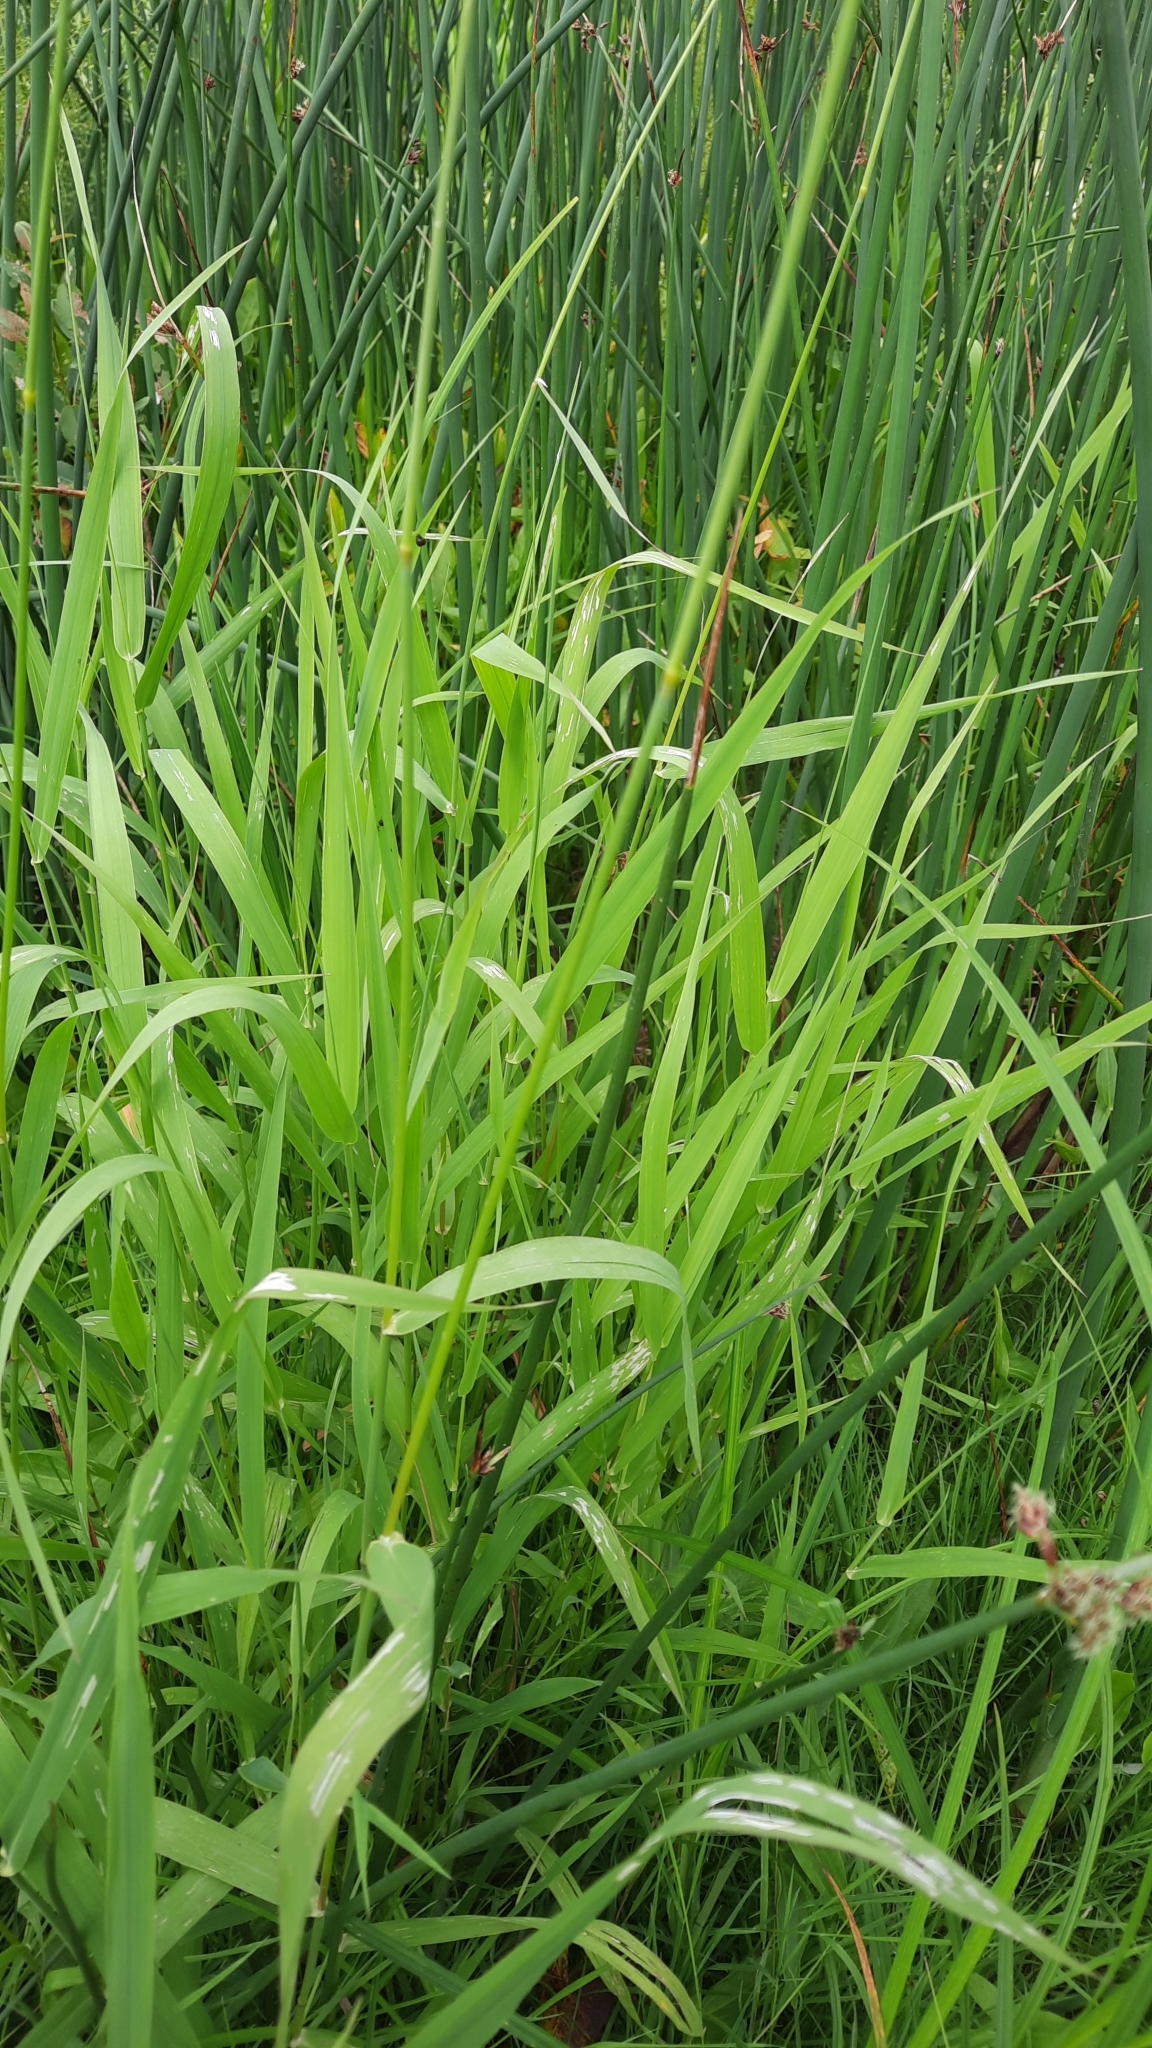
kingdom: Plantae
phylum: Tracheophyta
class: Liliopsida
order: Poales
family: Poaceae
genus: Phalaris
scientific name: Phalaris arundinacea
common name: Reed canary-grass
